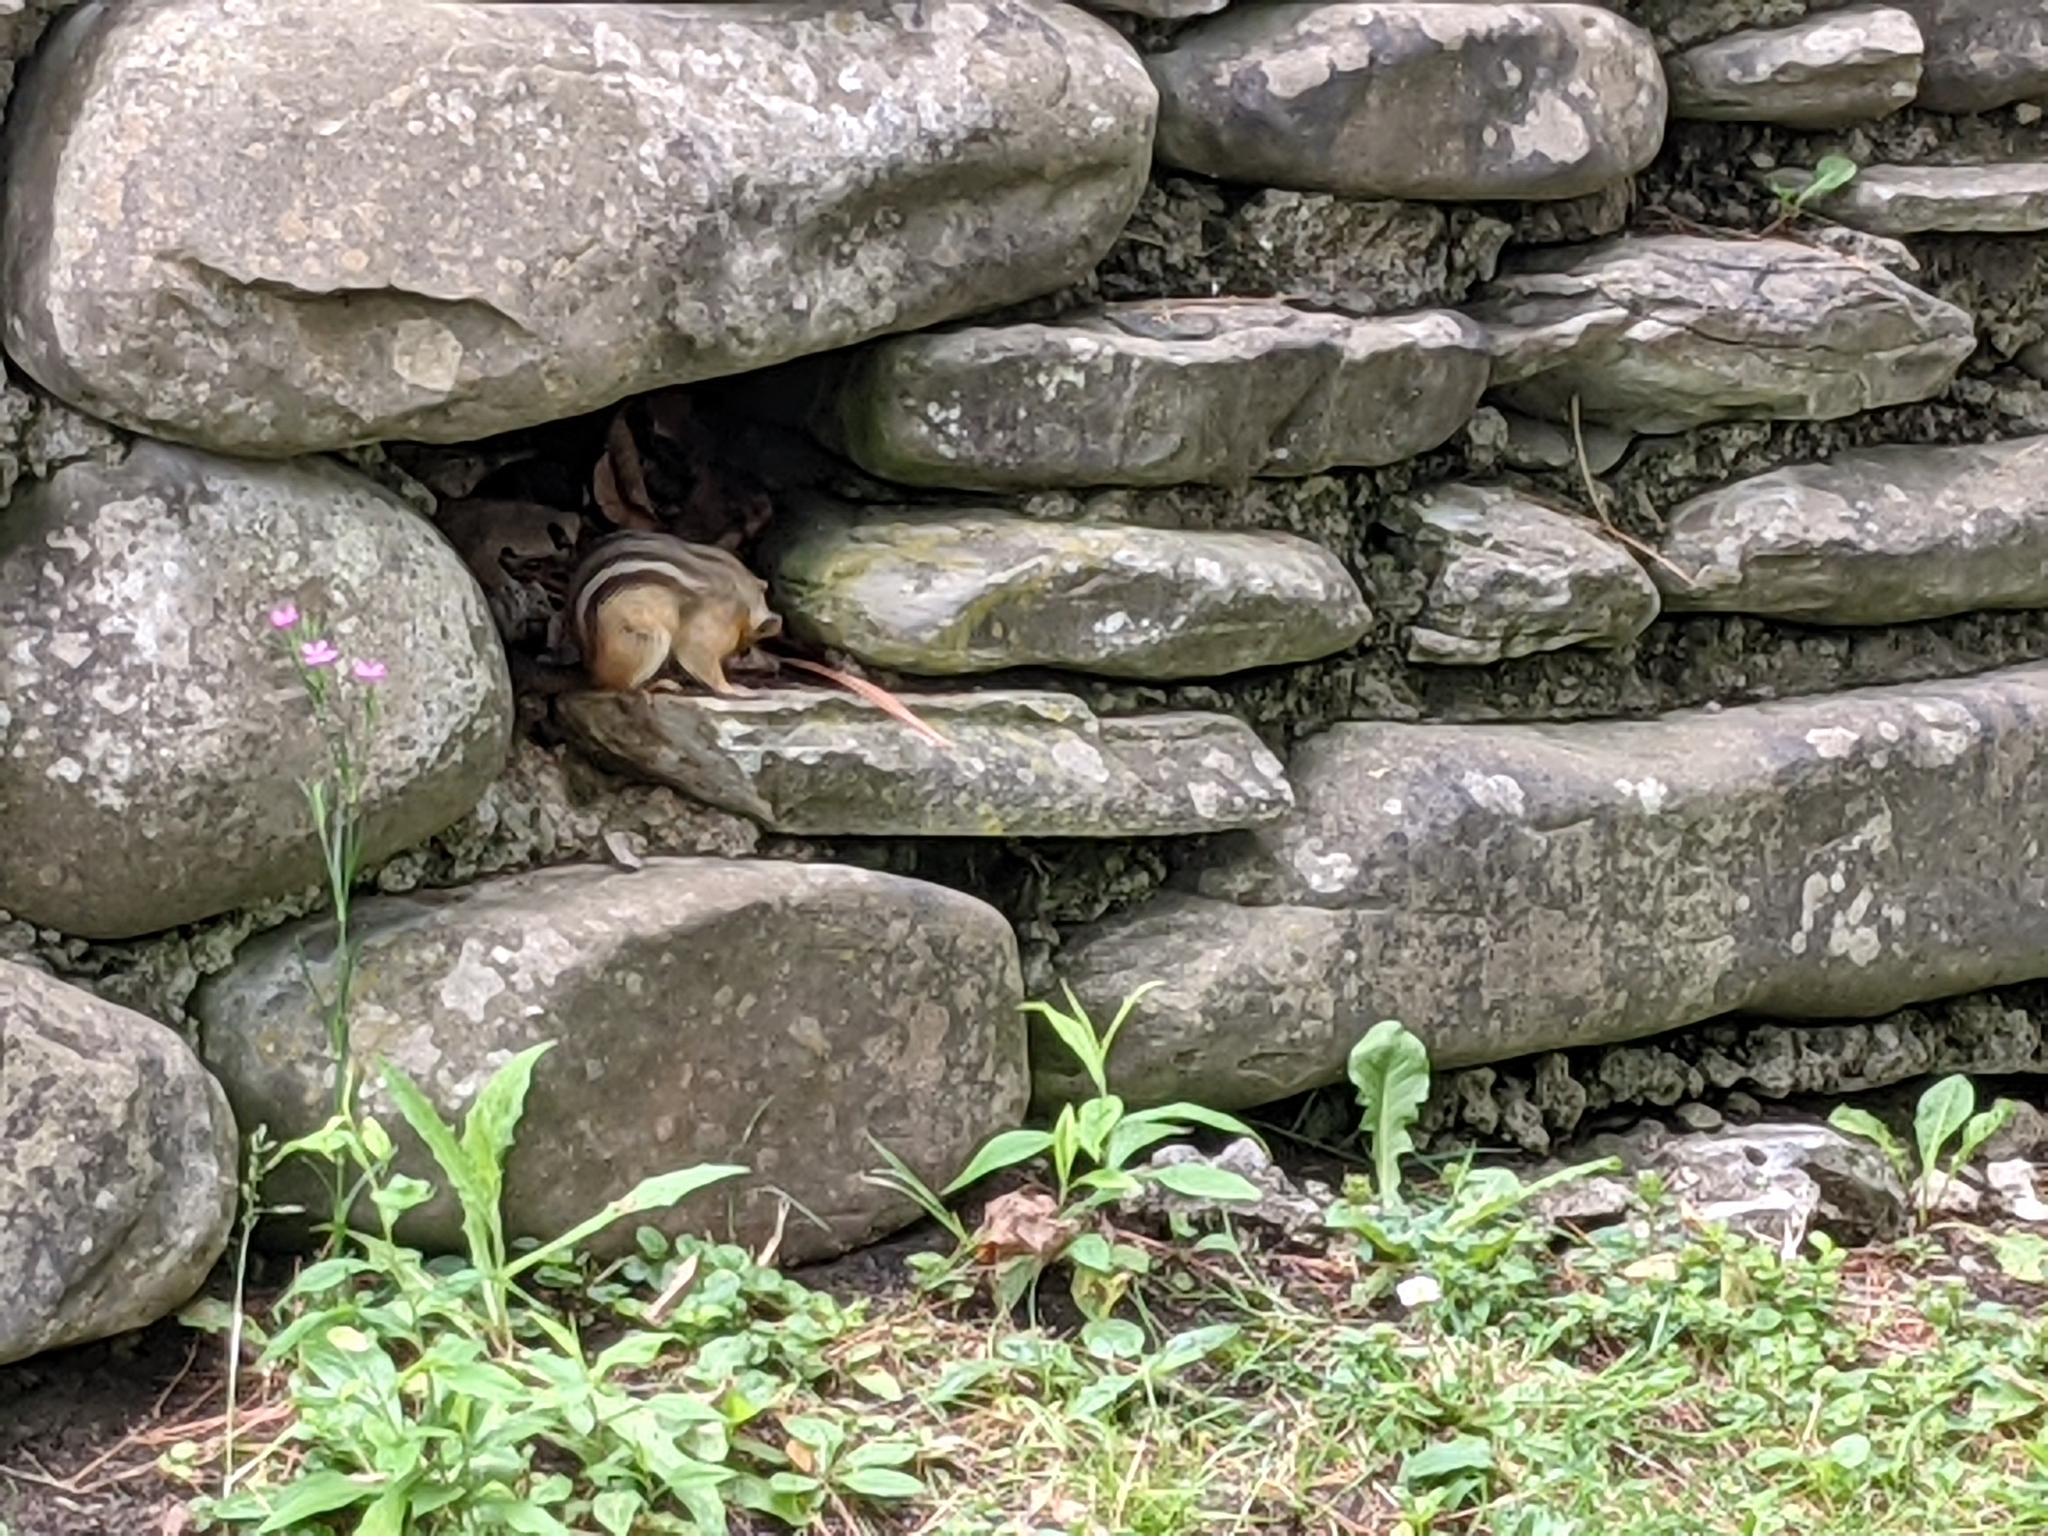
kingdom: Animalia
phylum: Chordata
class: Mammalia
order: Rodentia
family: Sciuridae
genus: Tamias
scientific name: Tamias striatus
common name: Eastern chipmunk
